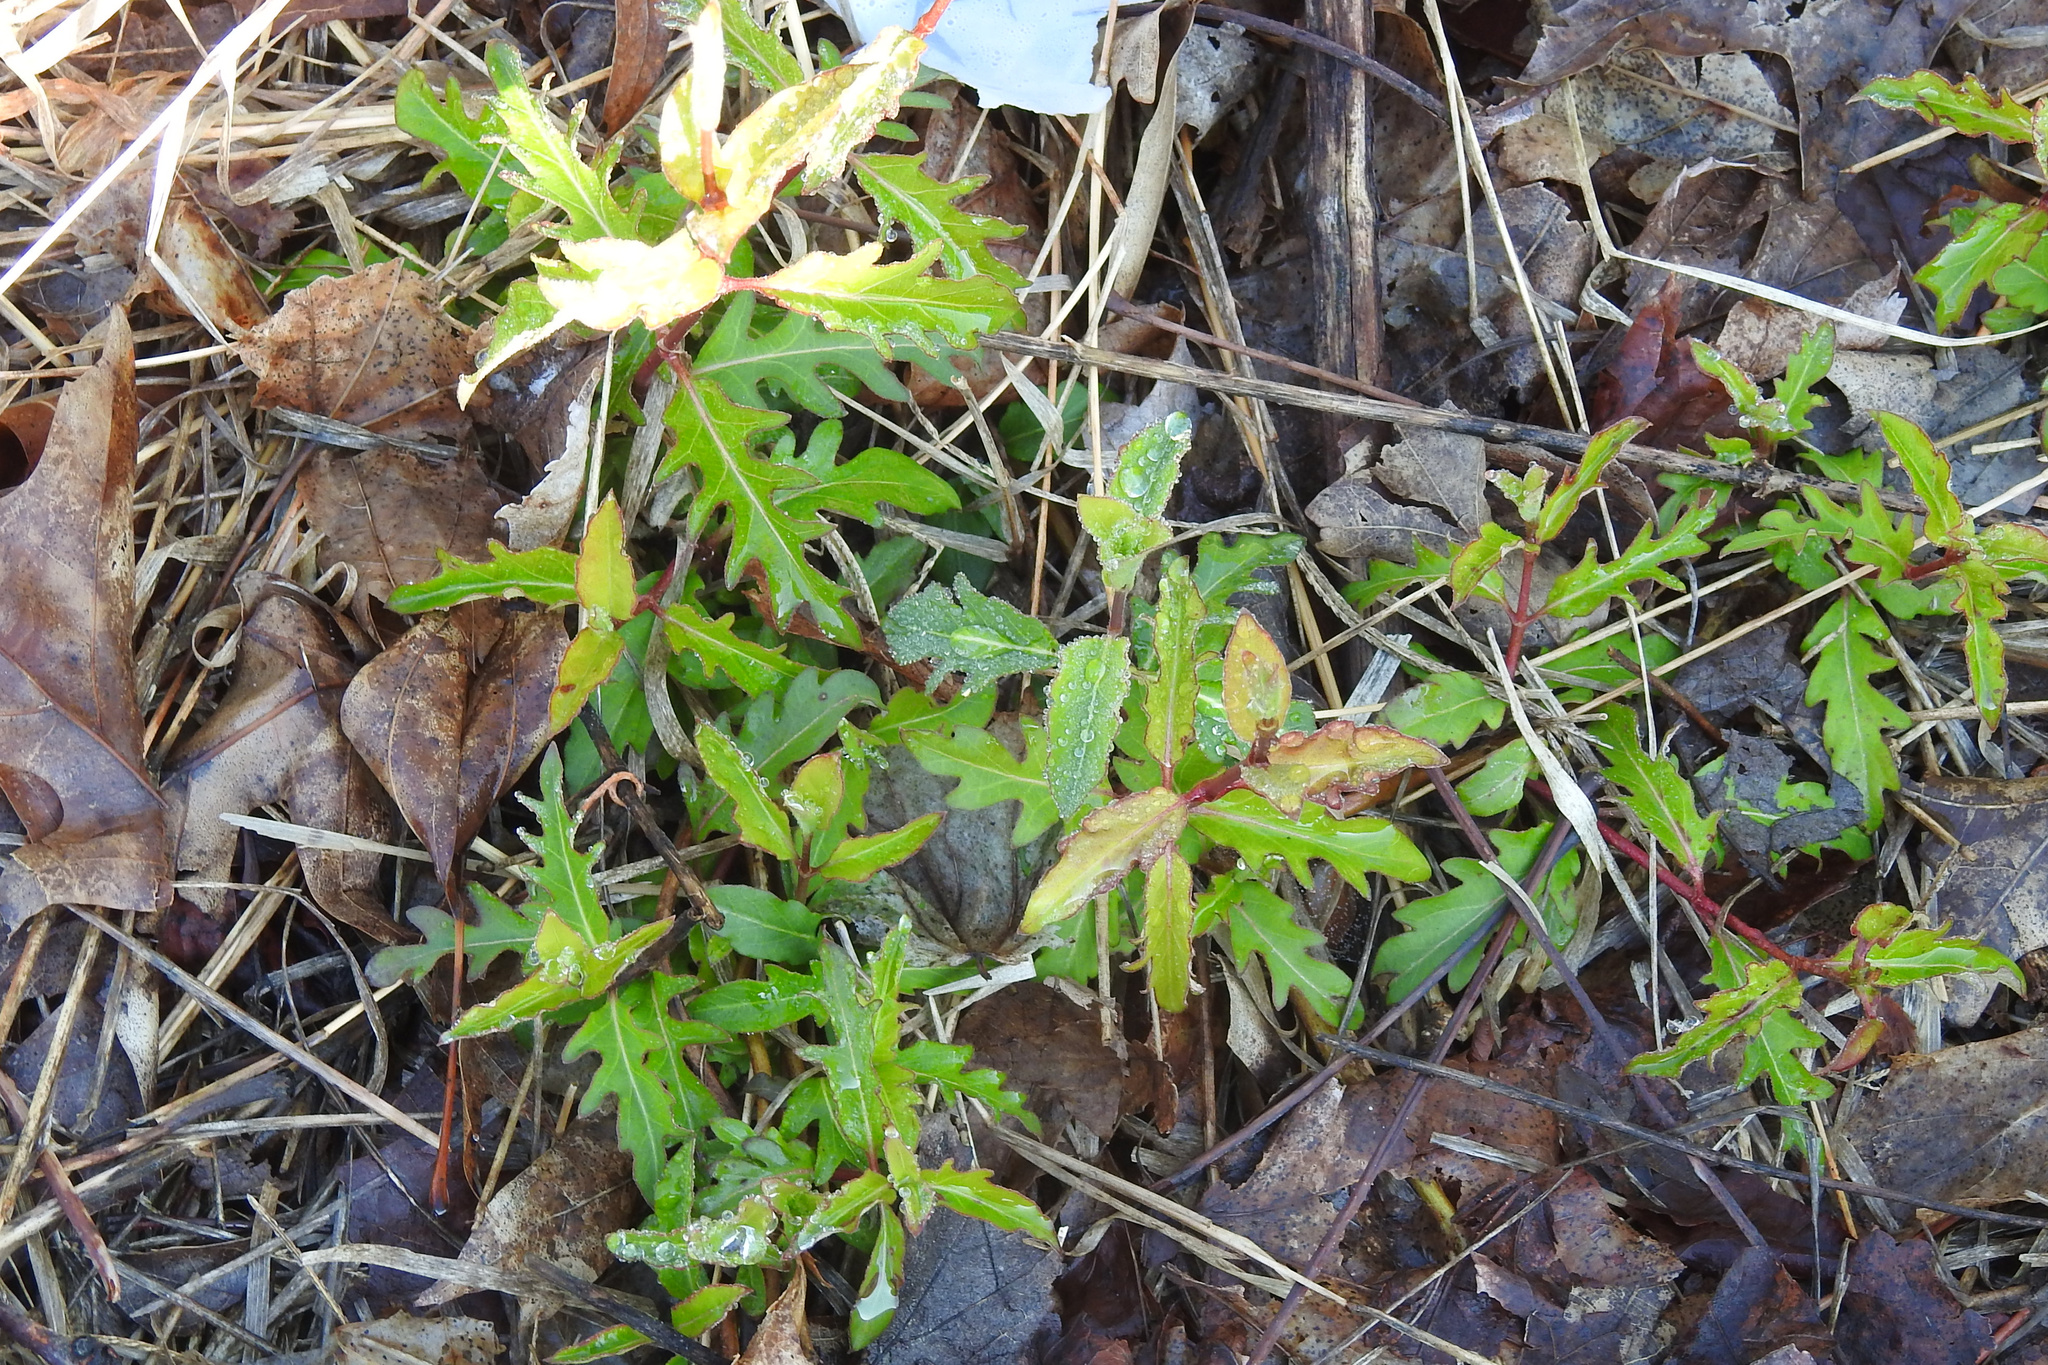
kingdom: Plantae
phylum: Tracheophyta
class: Magnoliopsida
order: Dipsacales
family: Caprifoliaceae
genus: Lonicera
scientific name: Lonicera japonica
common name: Japanese honeysuckle
